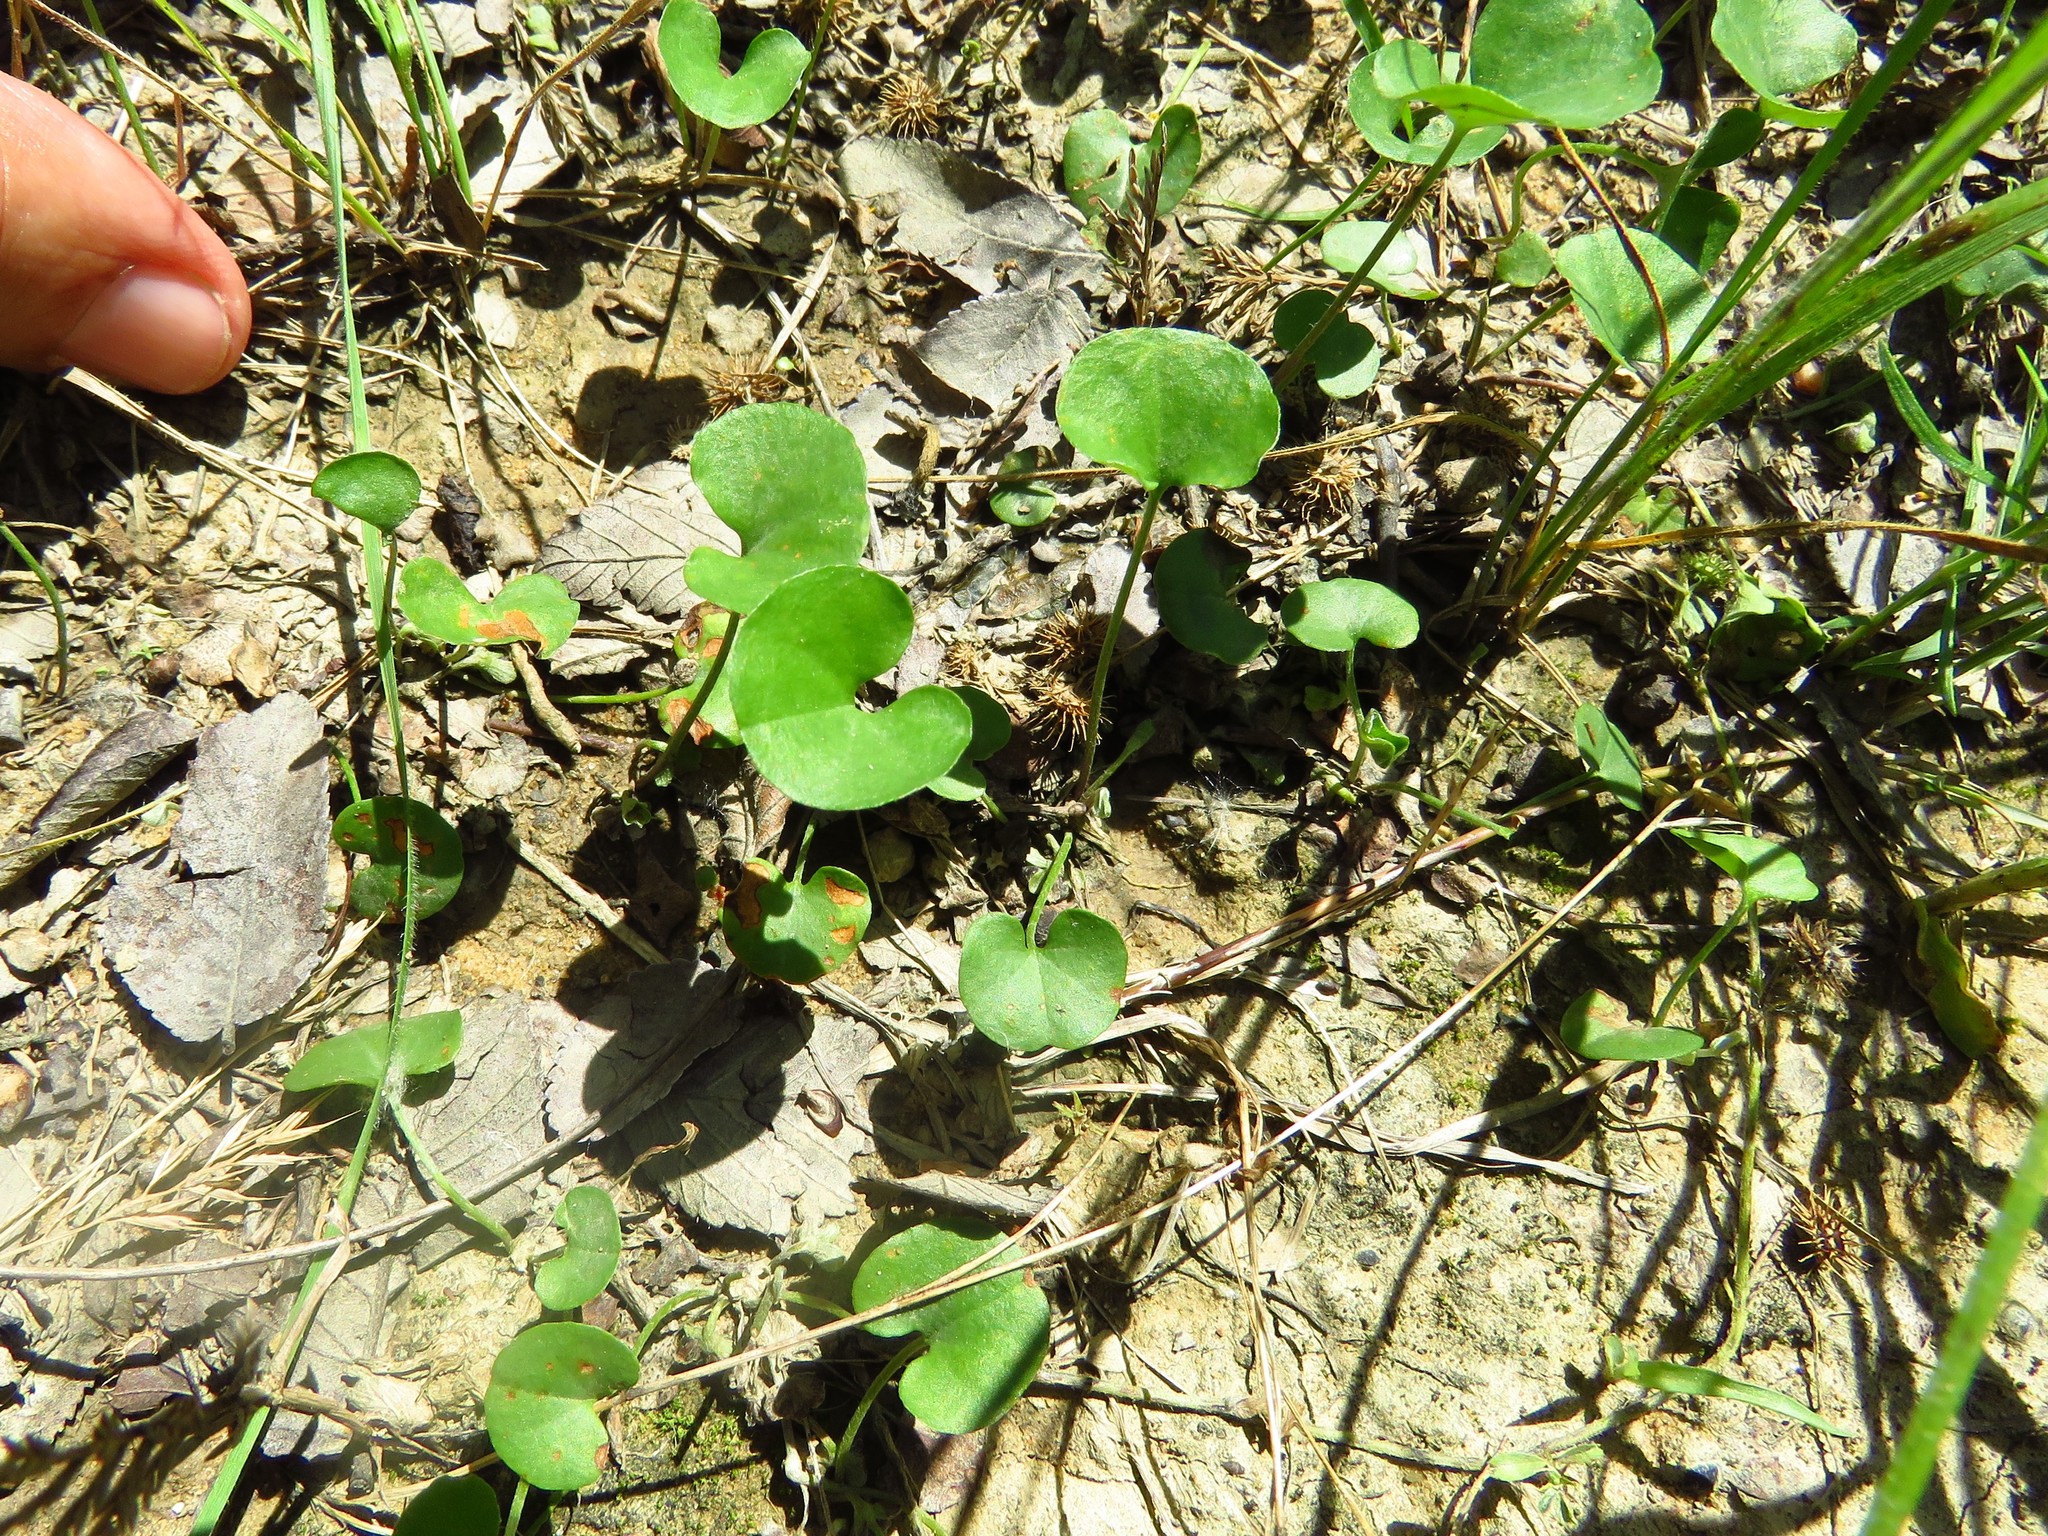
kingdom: Plantae
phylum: Tracheophyta
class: Magnoliopsida
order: Solanales
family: Convolvulaceae
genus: Dichondra
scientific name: Dichondra carolinensis
